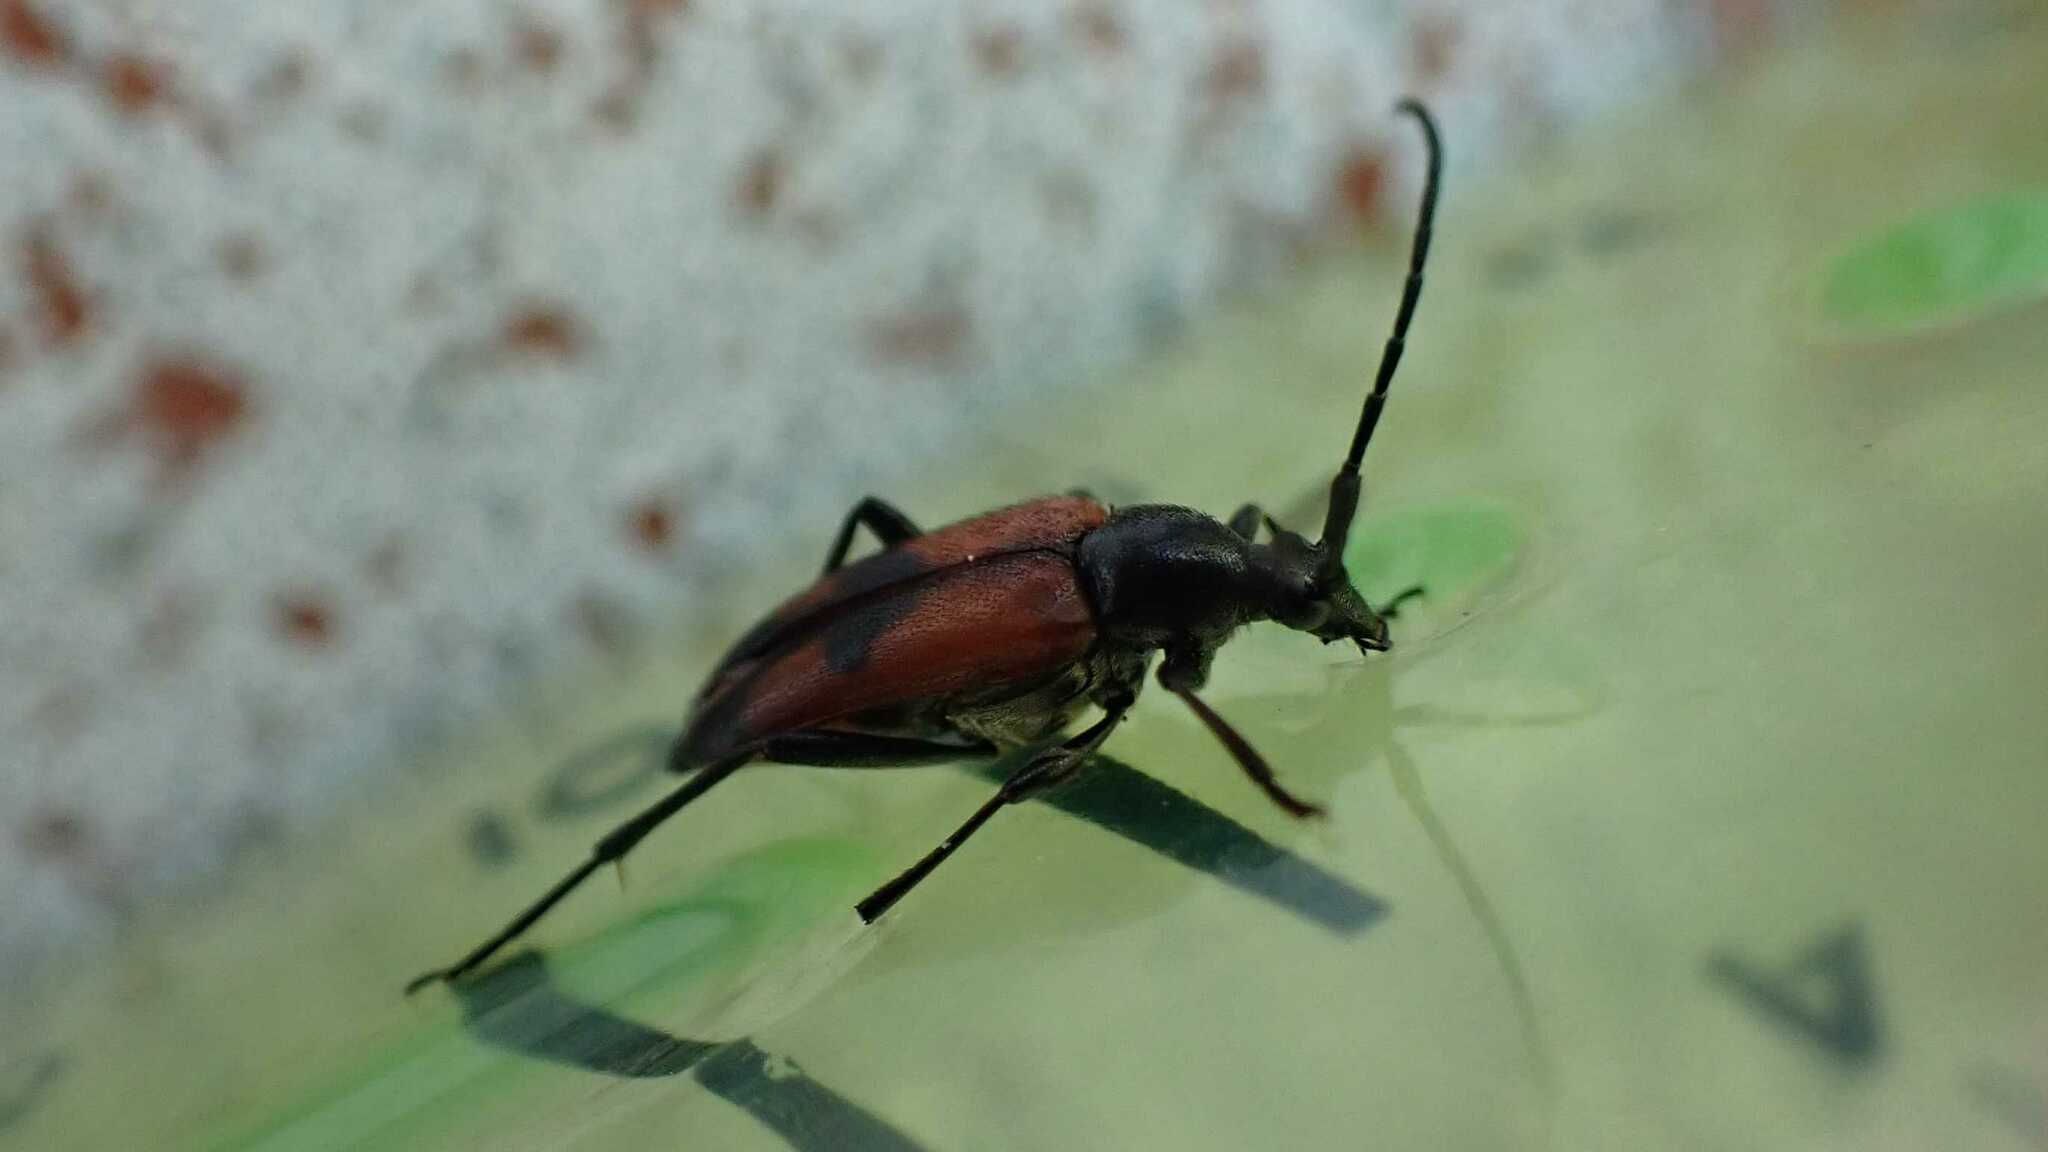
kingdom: Animalia
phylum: Arthropoda
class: Insecta
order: Coleoptera
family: Cerambycidae
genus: Stenurella
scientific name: Stenurella bifasciata
